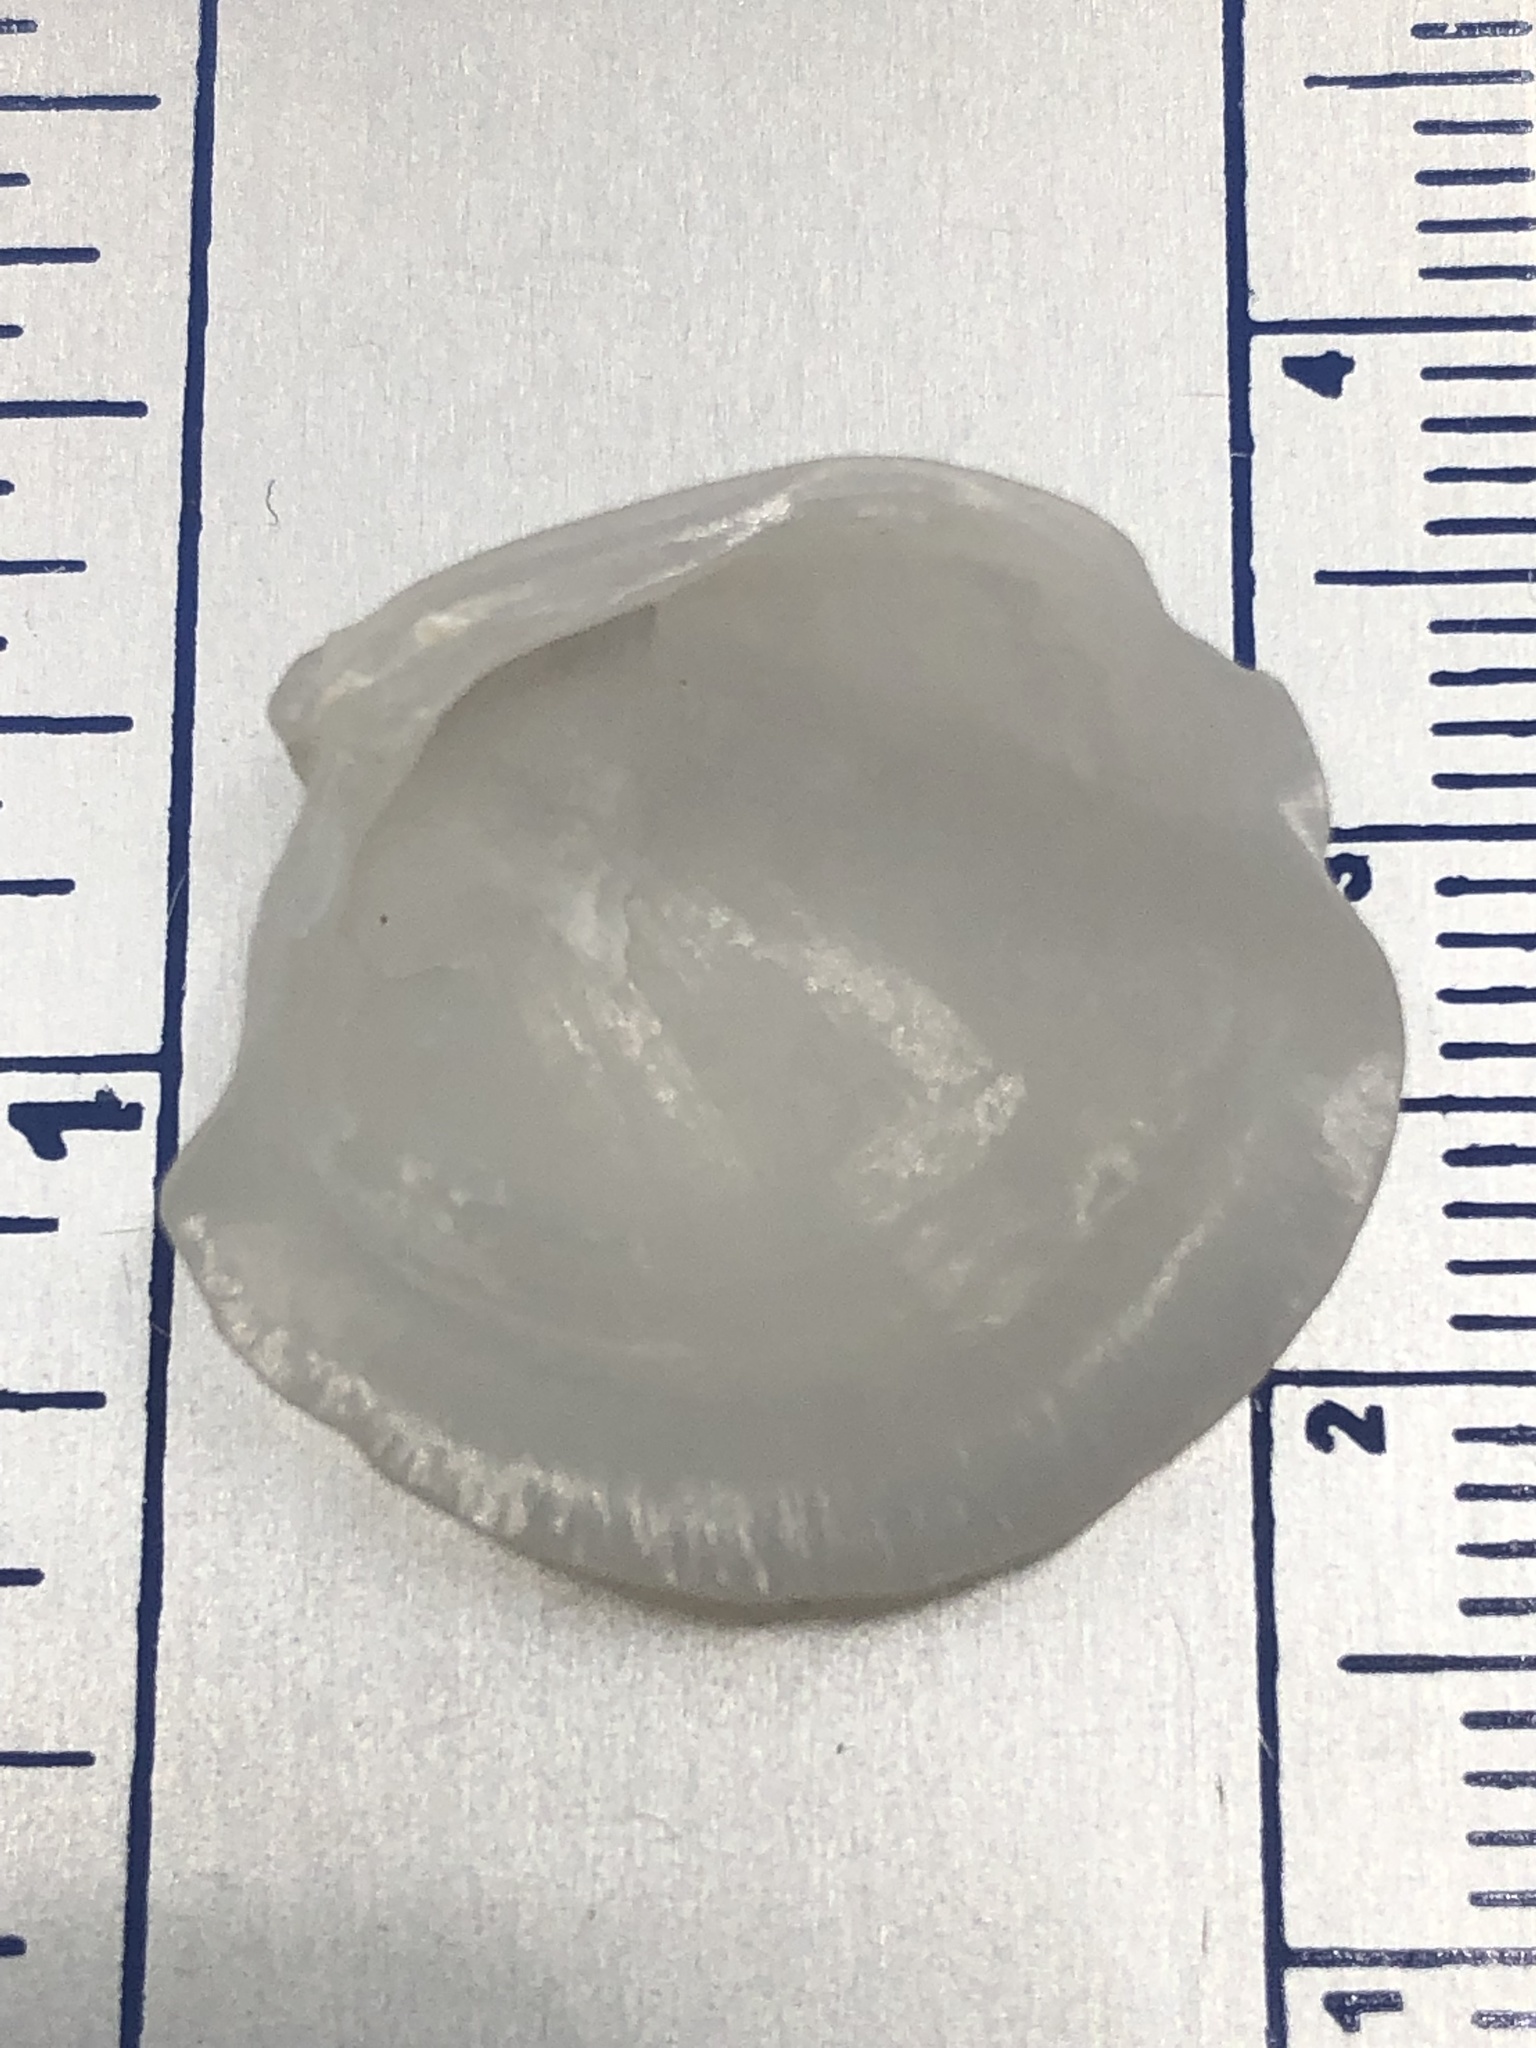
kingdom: Animalia
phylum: Mollusca
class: Bivalvia
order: Lucinida
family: Lucinidae
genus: Lucina
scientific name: Lucina pensylvanica
